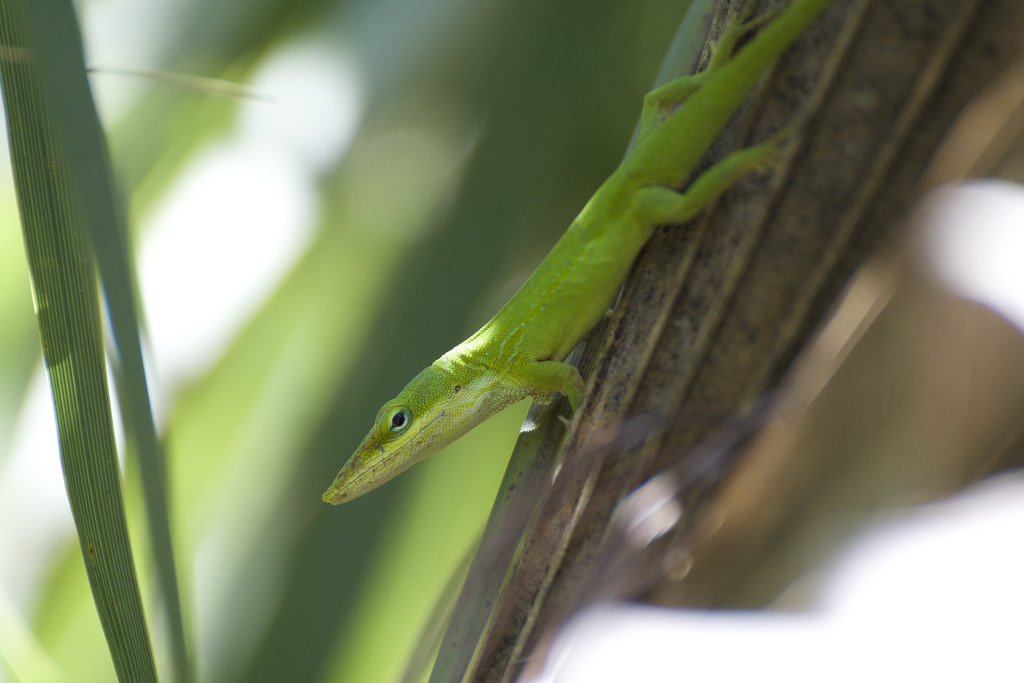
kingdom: Animalia
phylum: Chordata
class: Squamata
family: Dactyloidae
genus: Anolis
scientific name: Anolis carolinensis
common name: Green anole
